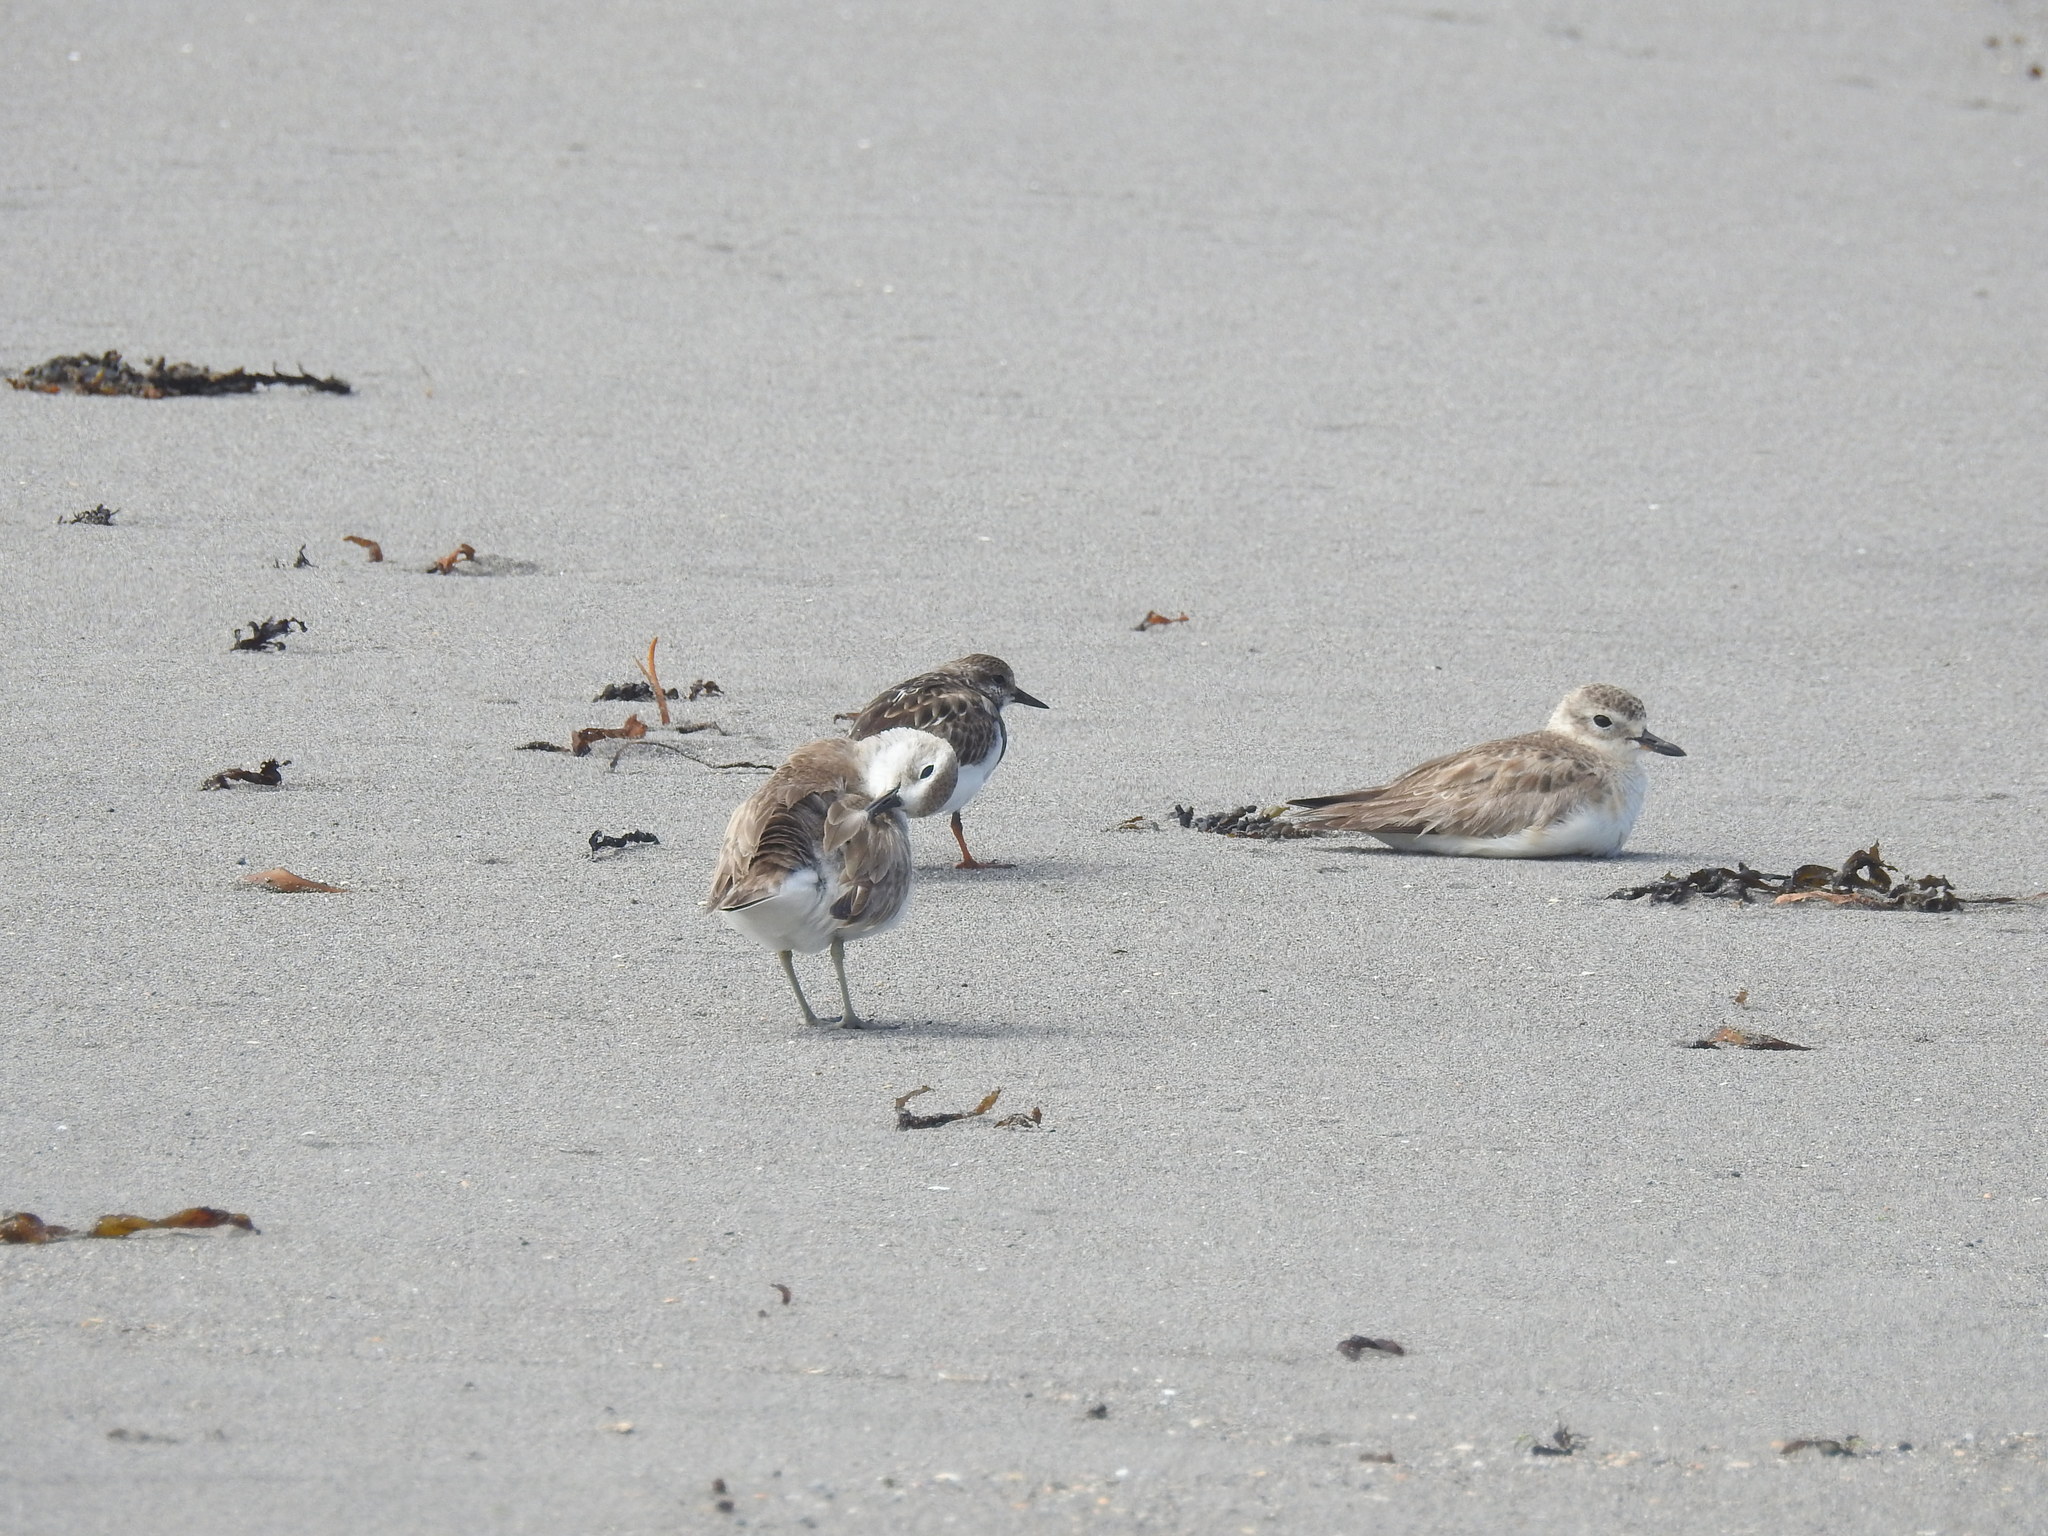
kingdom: Animalia
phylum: Chordata
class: Aves
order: Charadriiformes
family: Scolopacidae
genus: Arenaria
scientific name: Arenaria interpres
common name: Ruddy turnstone
